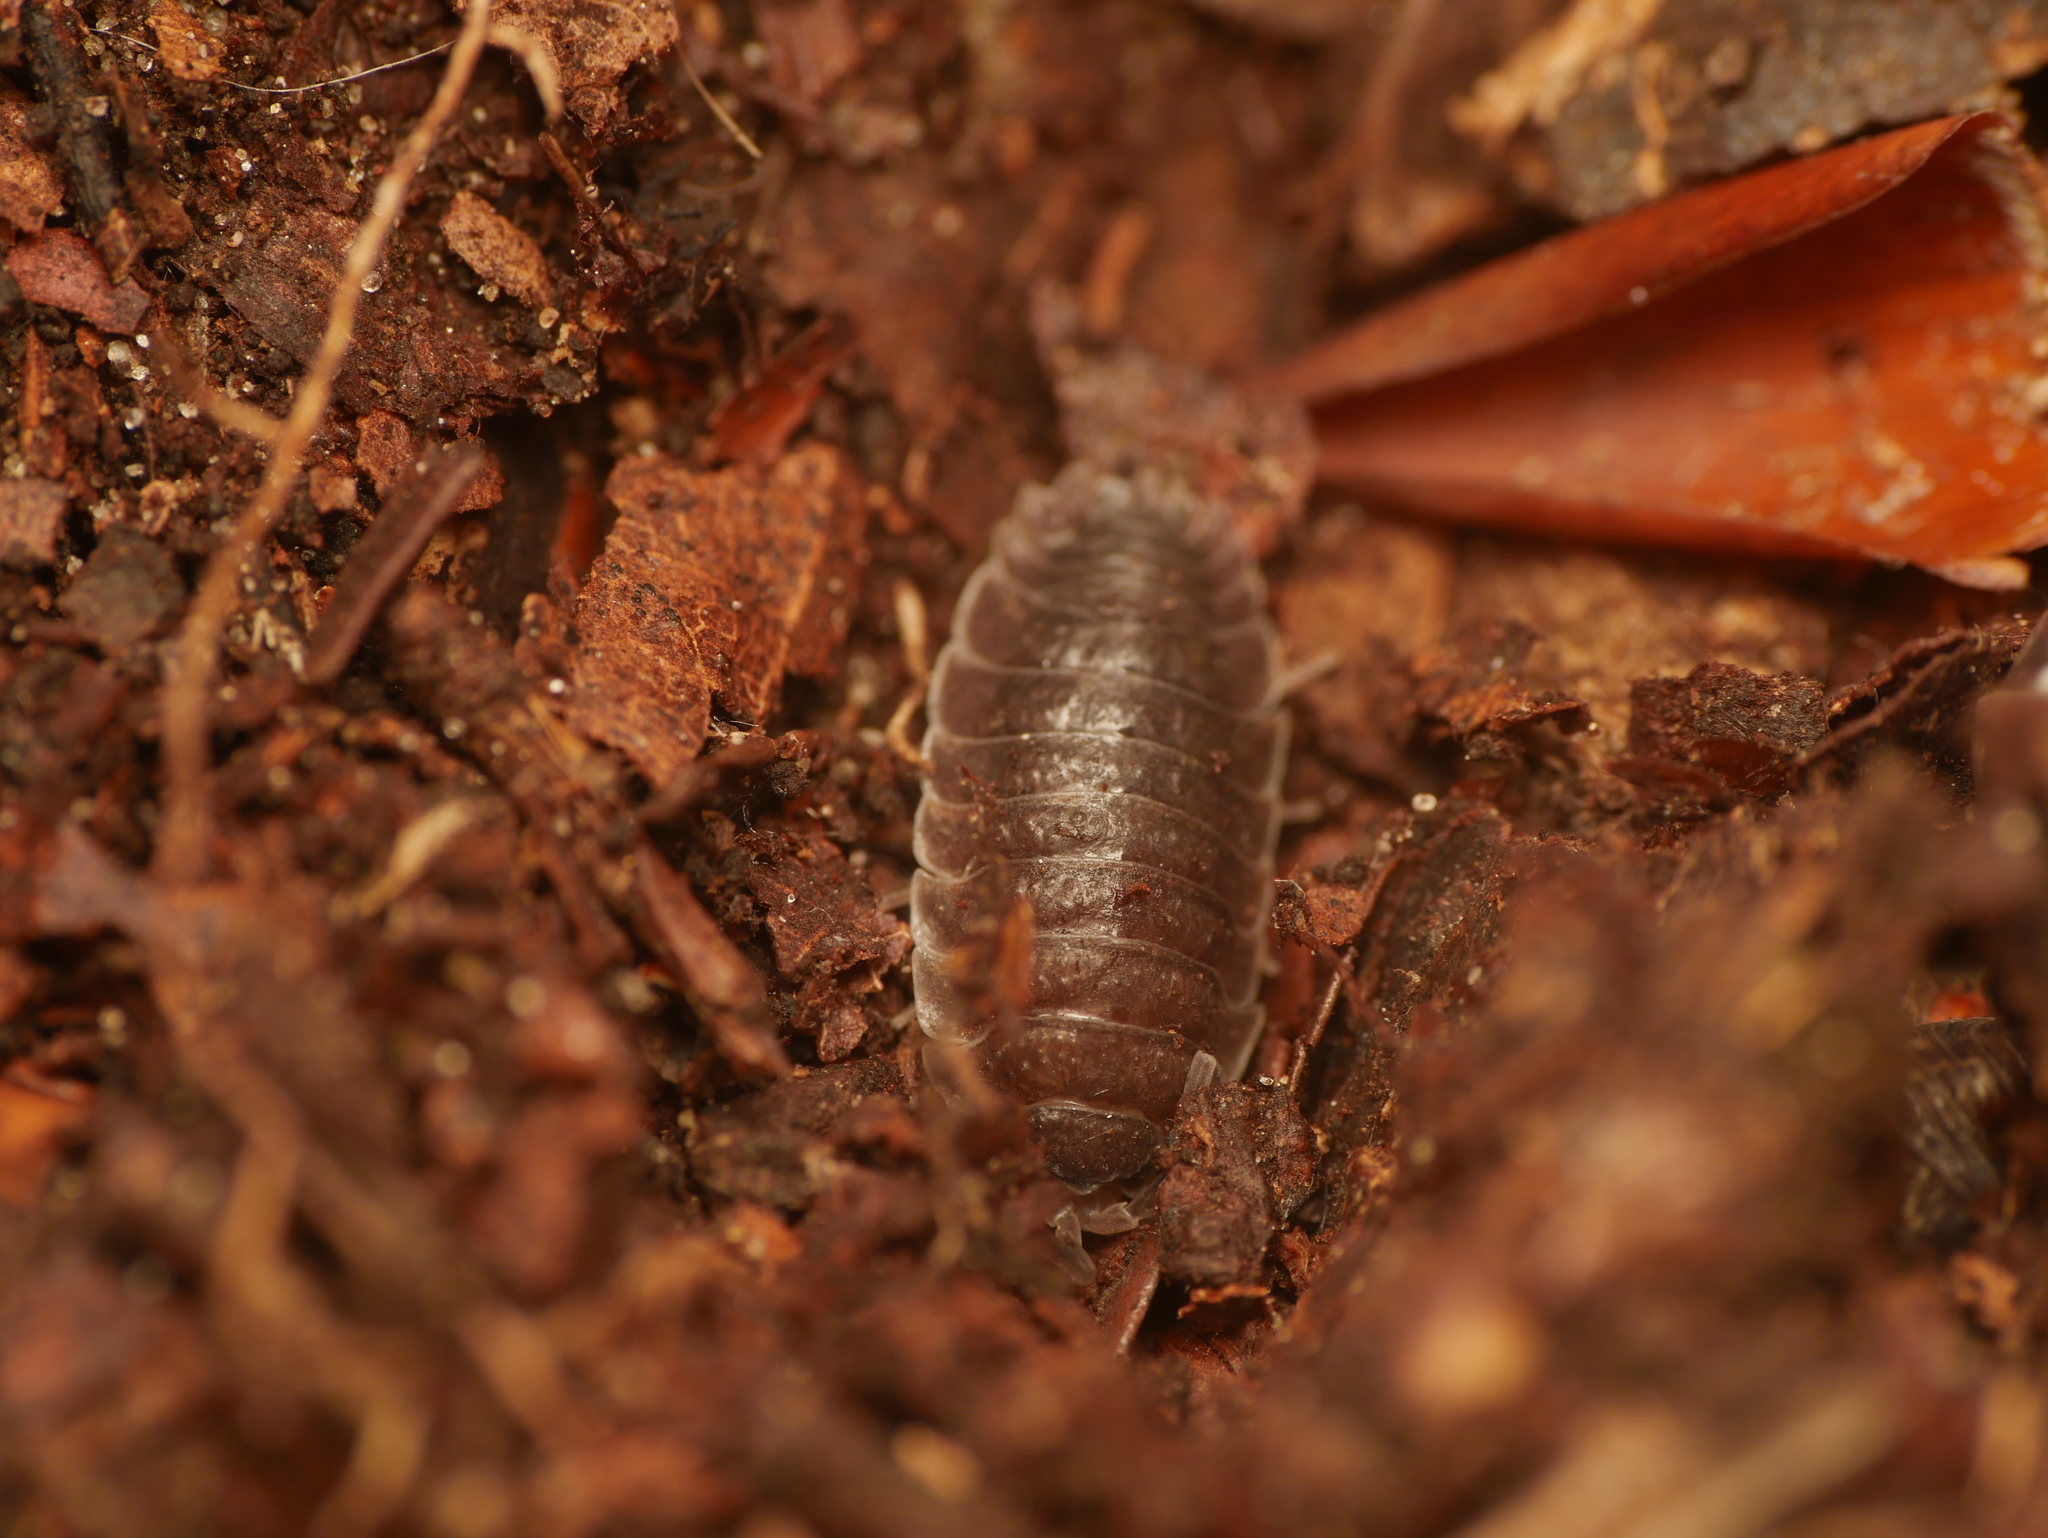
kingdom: Animalia
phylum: Arthropoda
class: Malacostraca
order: Isopoda
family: Porcellionidae
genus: Porcellio
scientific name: Porcellio scaber
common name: Common rough woodlouse
